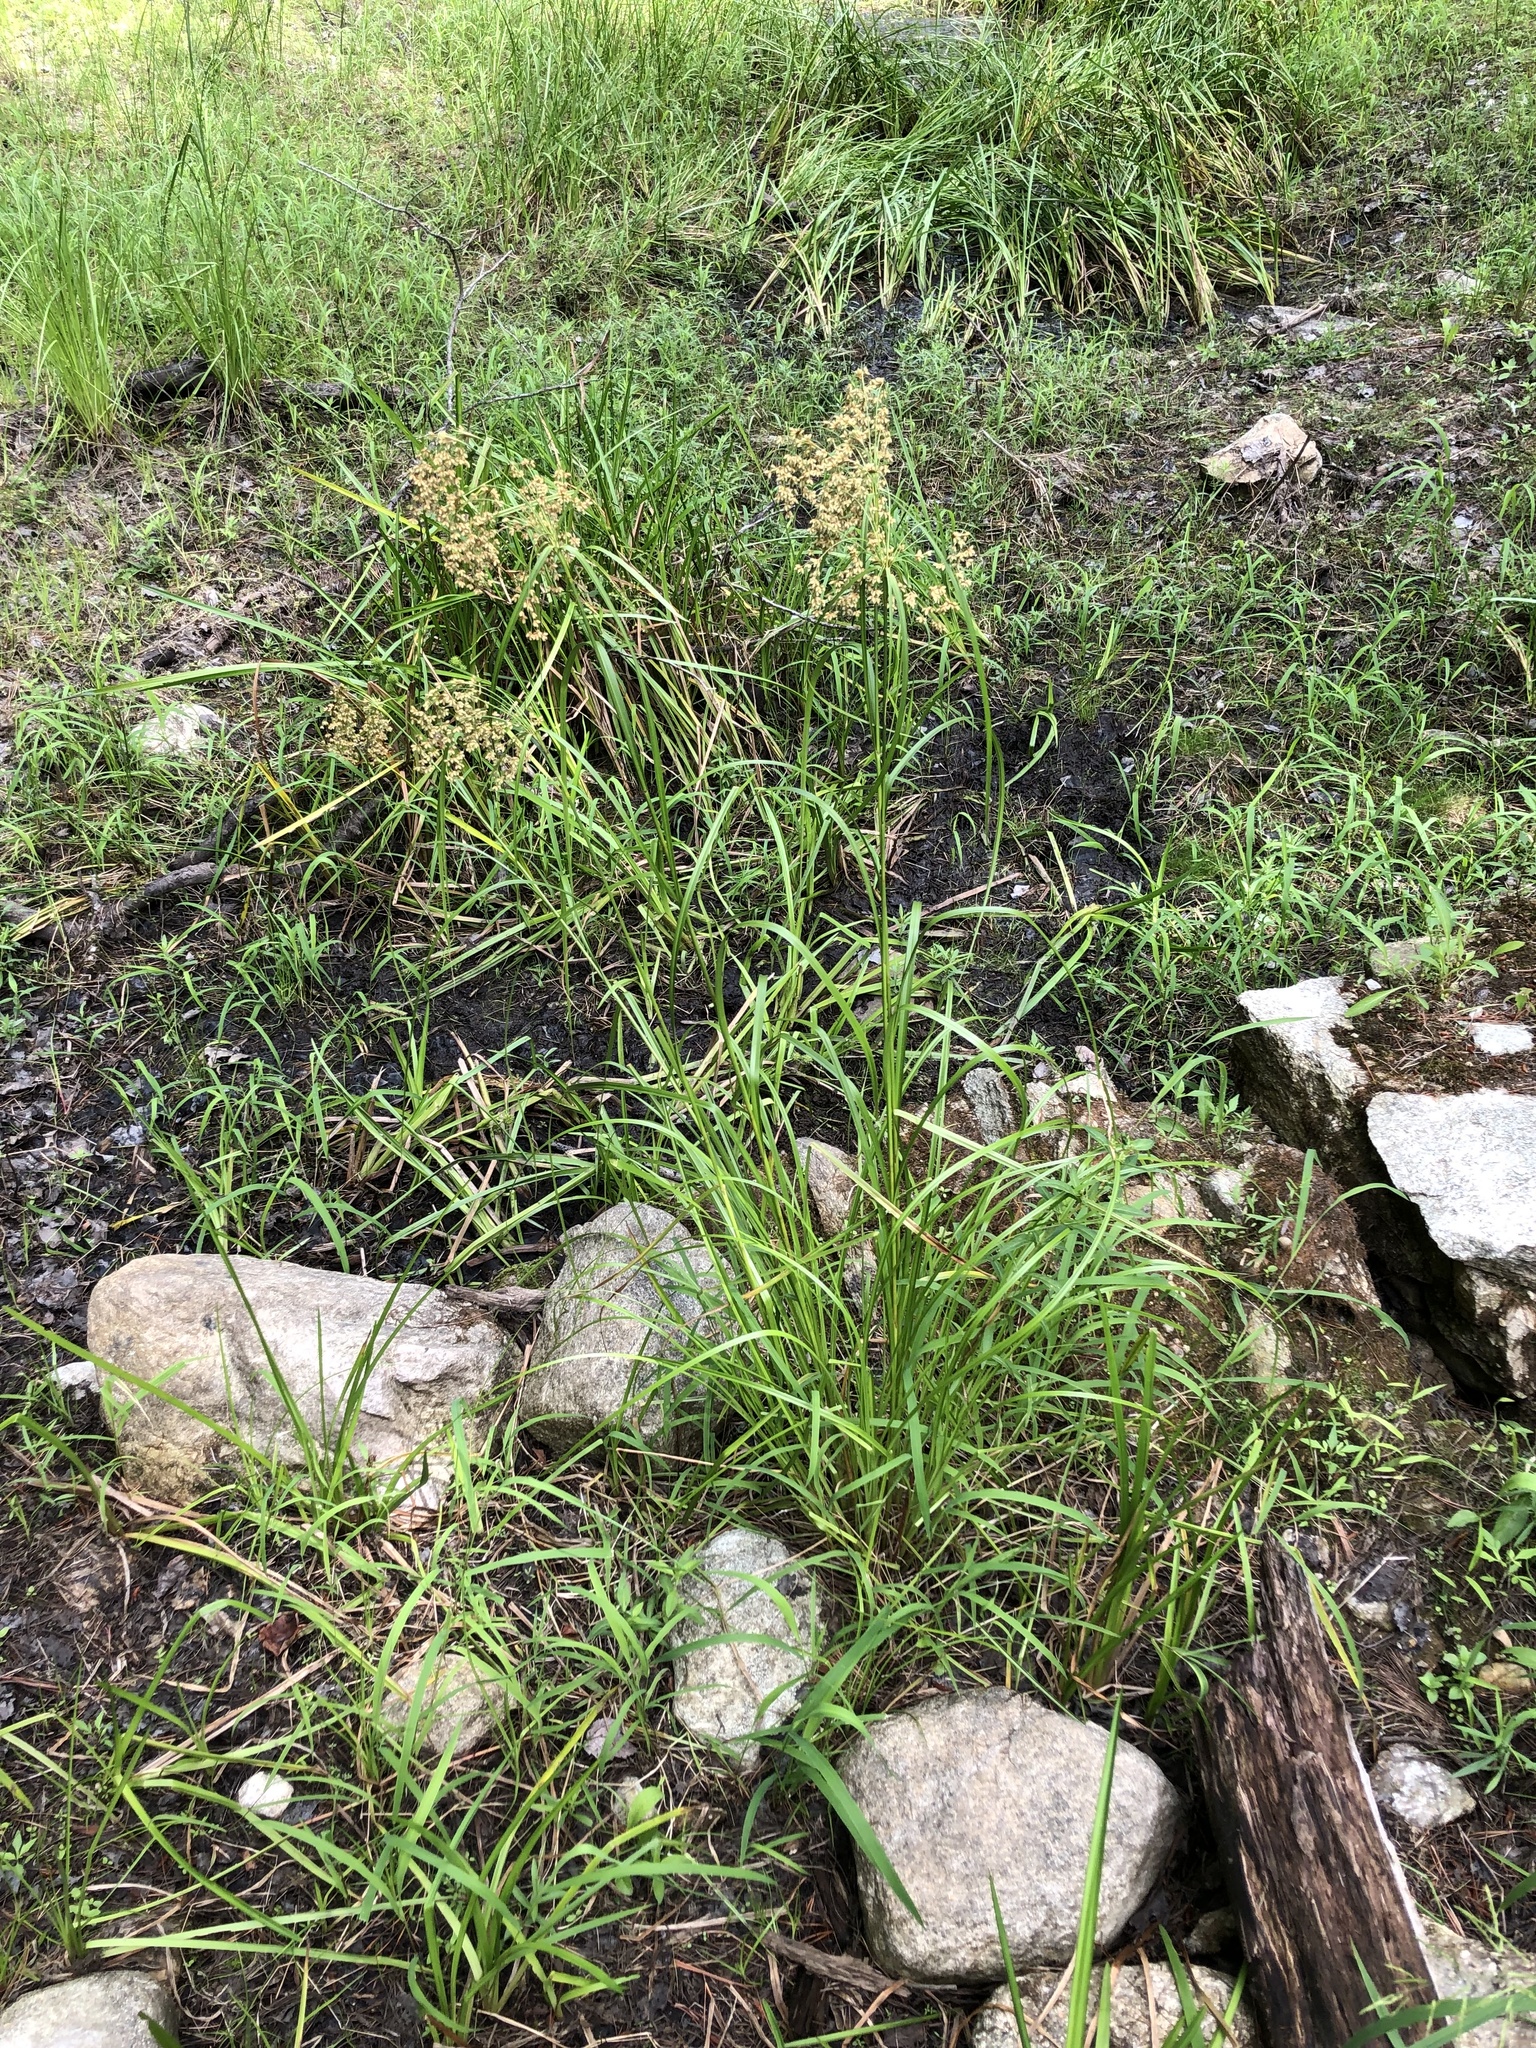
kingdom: Plantae
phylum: Tracheophyta
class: Liliopsida
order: Poales
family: Cyperaceae
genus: Scirpus
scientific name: Scirpus cyperinus
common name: Black-sheathed bulrush
